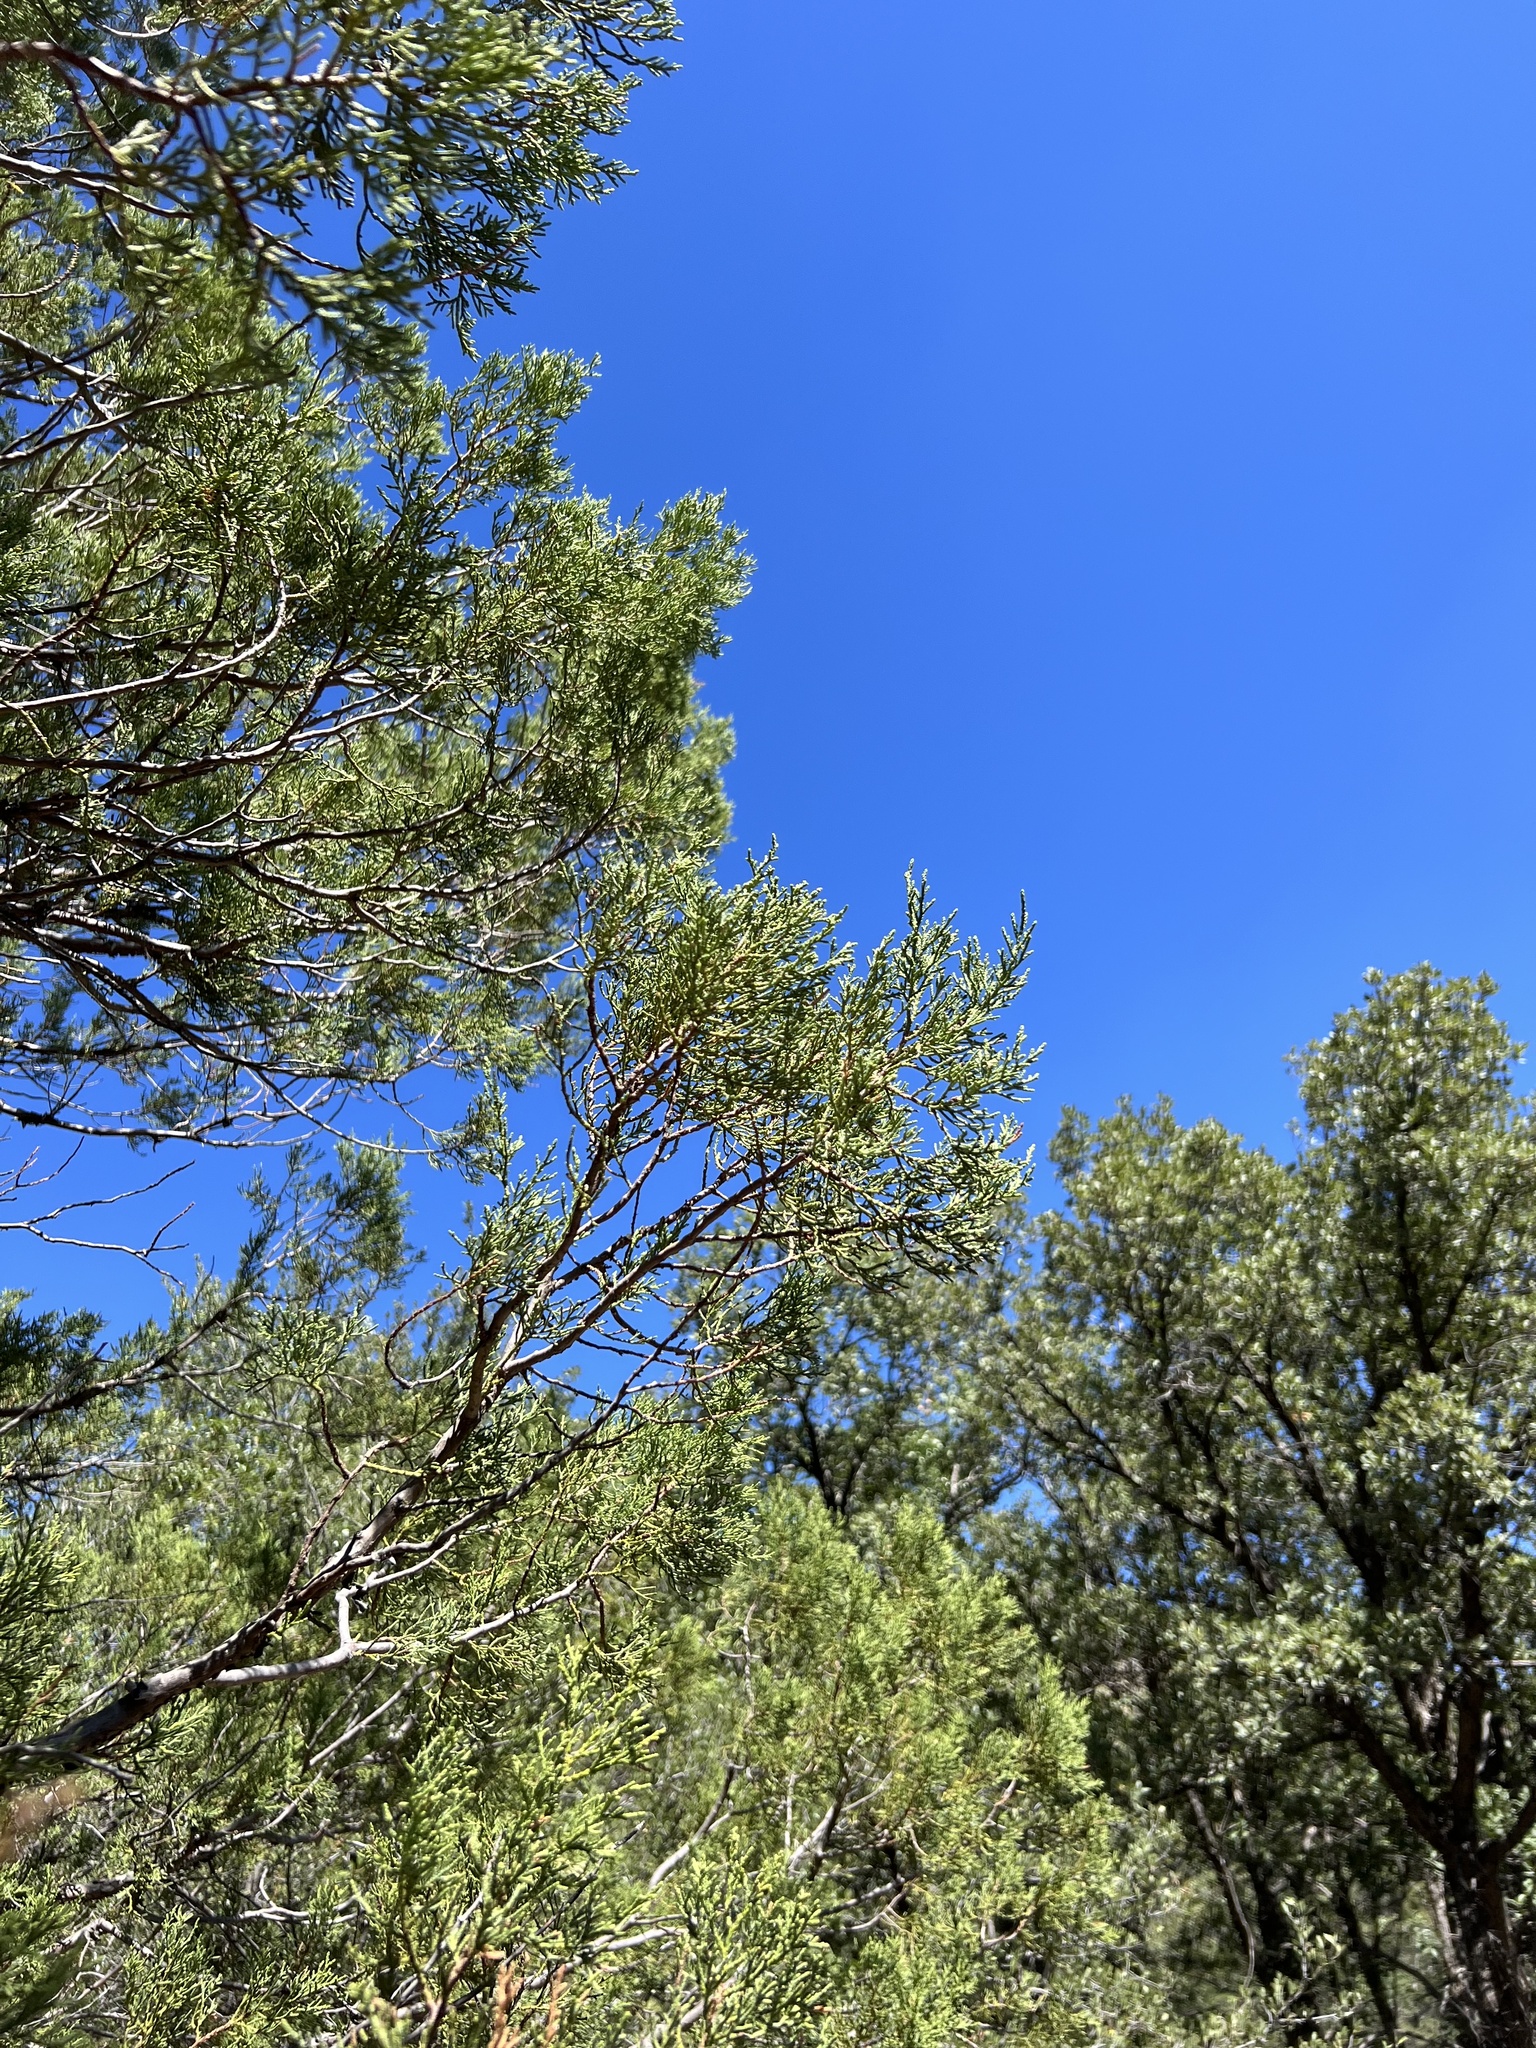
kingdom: Plantae
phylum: Tracheophyta
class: Pinopsida
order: Pinales
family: Cupressaceae
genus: Juniperus
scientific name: Juniperus deppeana
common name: Alligator juniper
